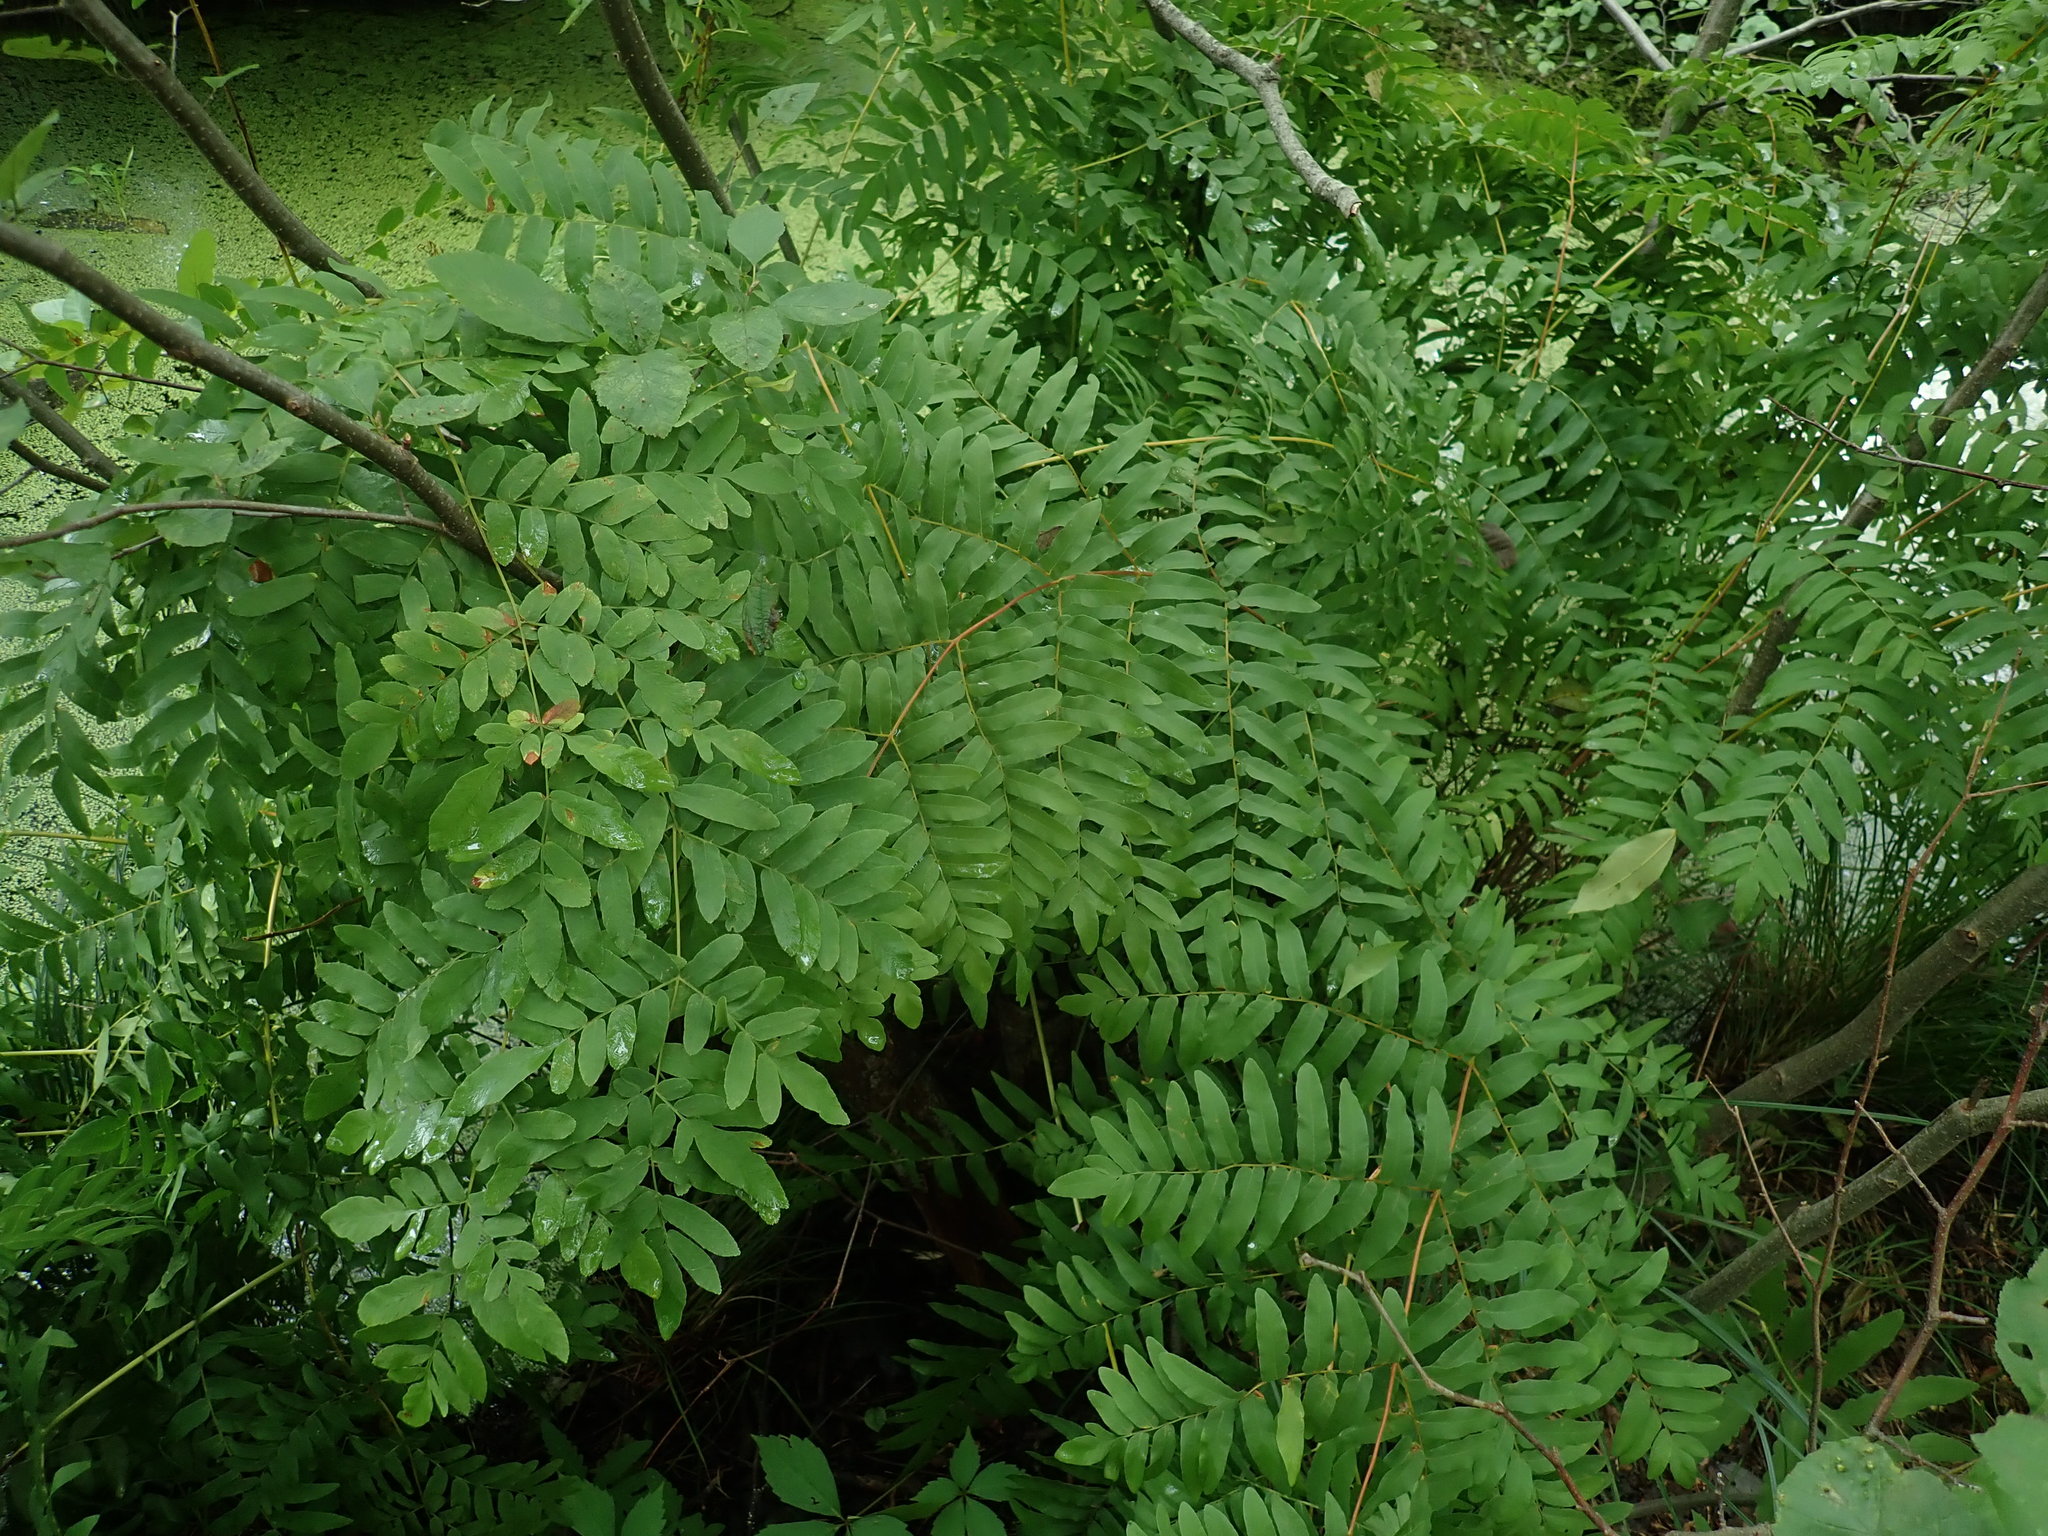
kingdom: Plantae
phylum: Tracheophyta
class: Polypodiopsida
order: Osmundales
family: Osmundaceae
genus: Osmunda
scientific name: Osmunda spectabilis
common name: American royal fern
